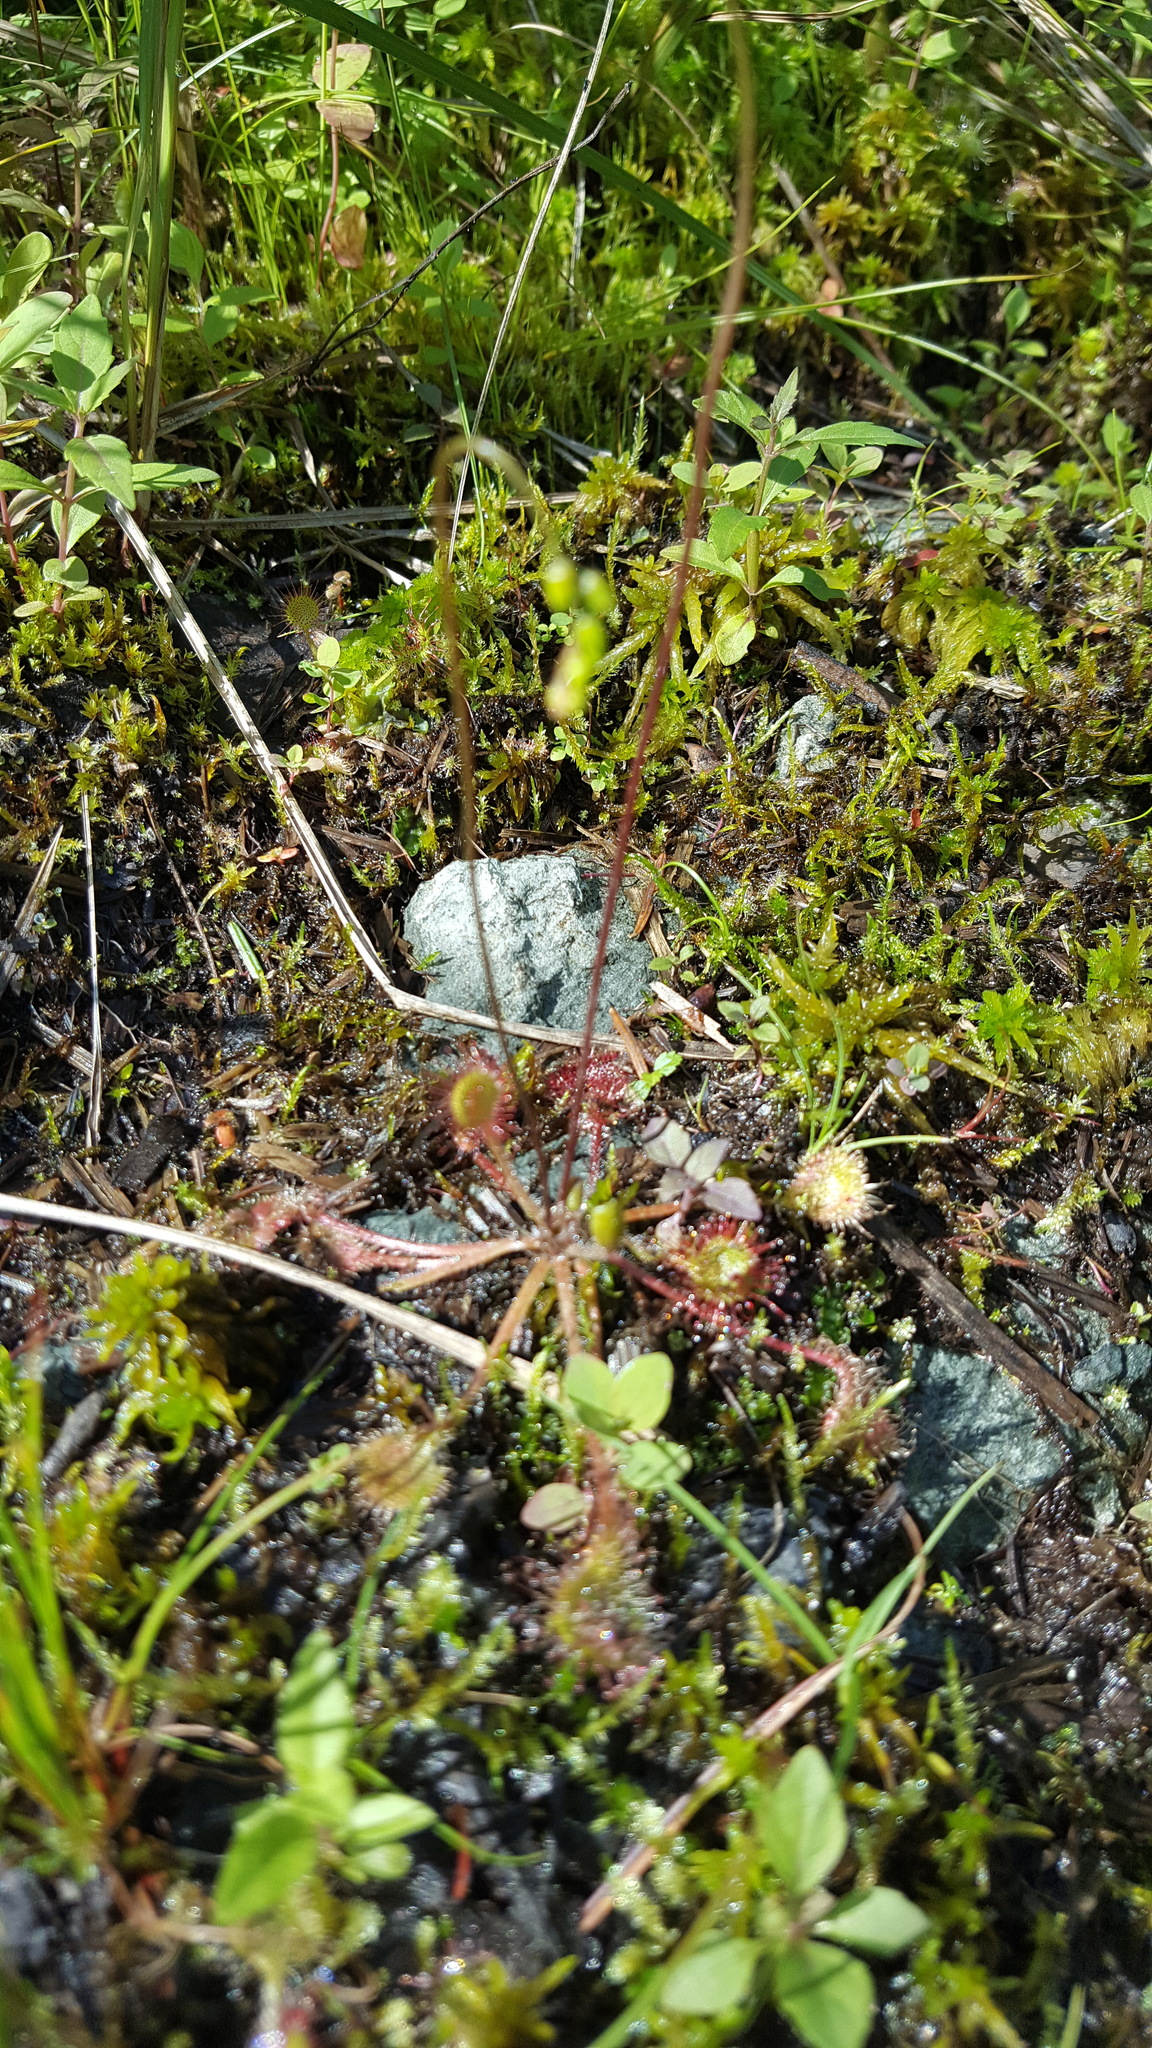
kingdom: Plantae
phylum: Tracheophyta
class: Magnoliopsida
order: Caryophyllales
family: Droseraceae
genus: Drosera
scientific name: Drosera rotundifolia
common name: Round-leaved sundew
